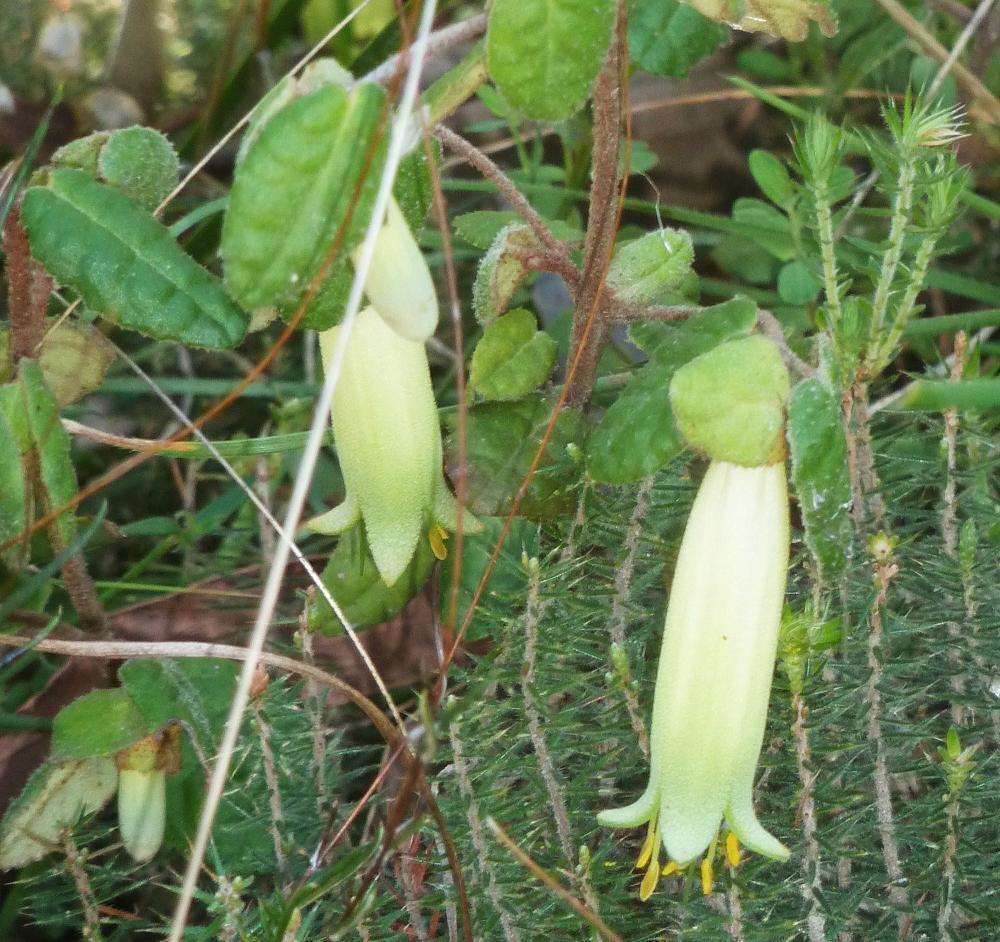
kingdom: Plantae
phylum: Tracheophyta
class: Magnoliopsida
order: Sapindales
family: Rutaceae
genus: Correa
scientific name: Correa reflexa
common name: Common correa
